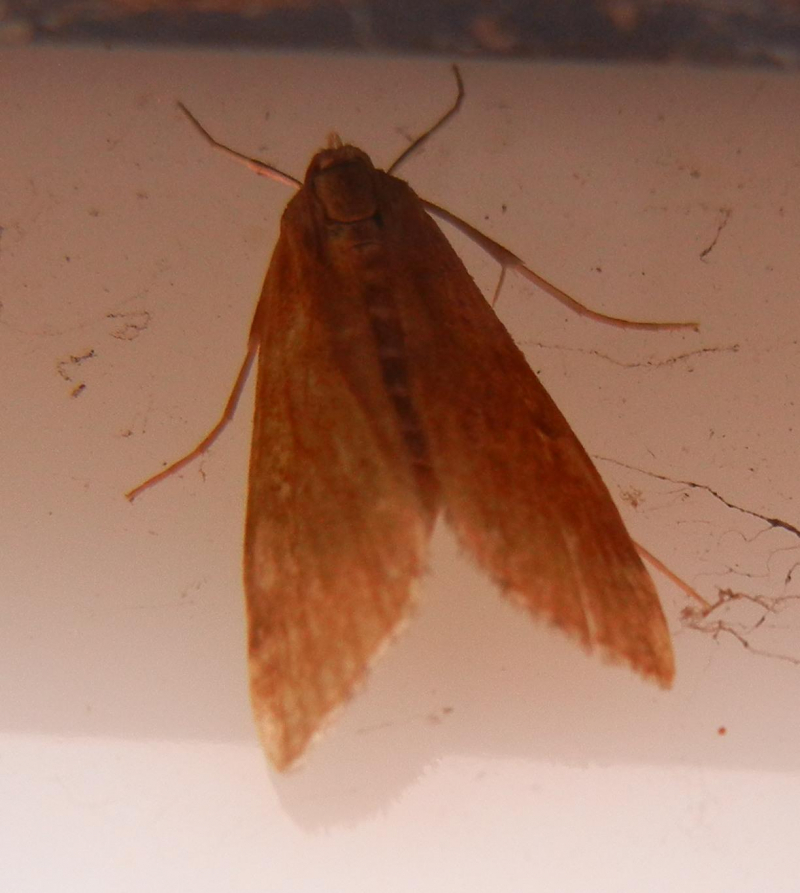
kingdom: Animalia
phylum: Arthropoda
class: Insecta
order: Lepidoptera
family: Crambidae
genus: Parapoynx
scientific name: Parapoynx stratiotata
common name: Ringed china-mark
